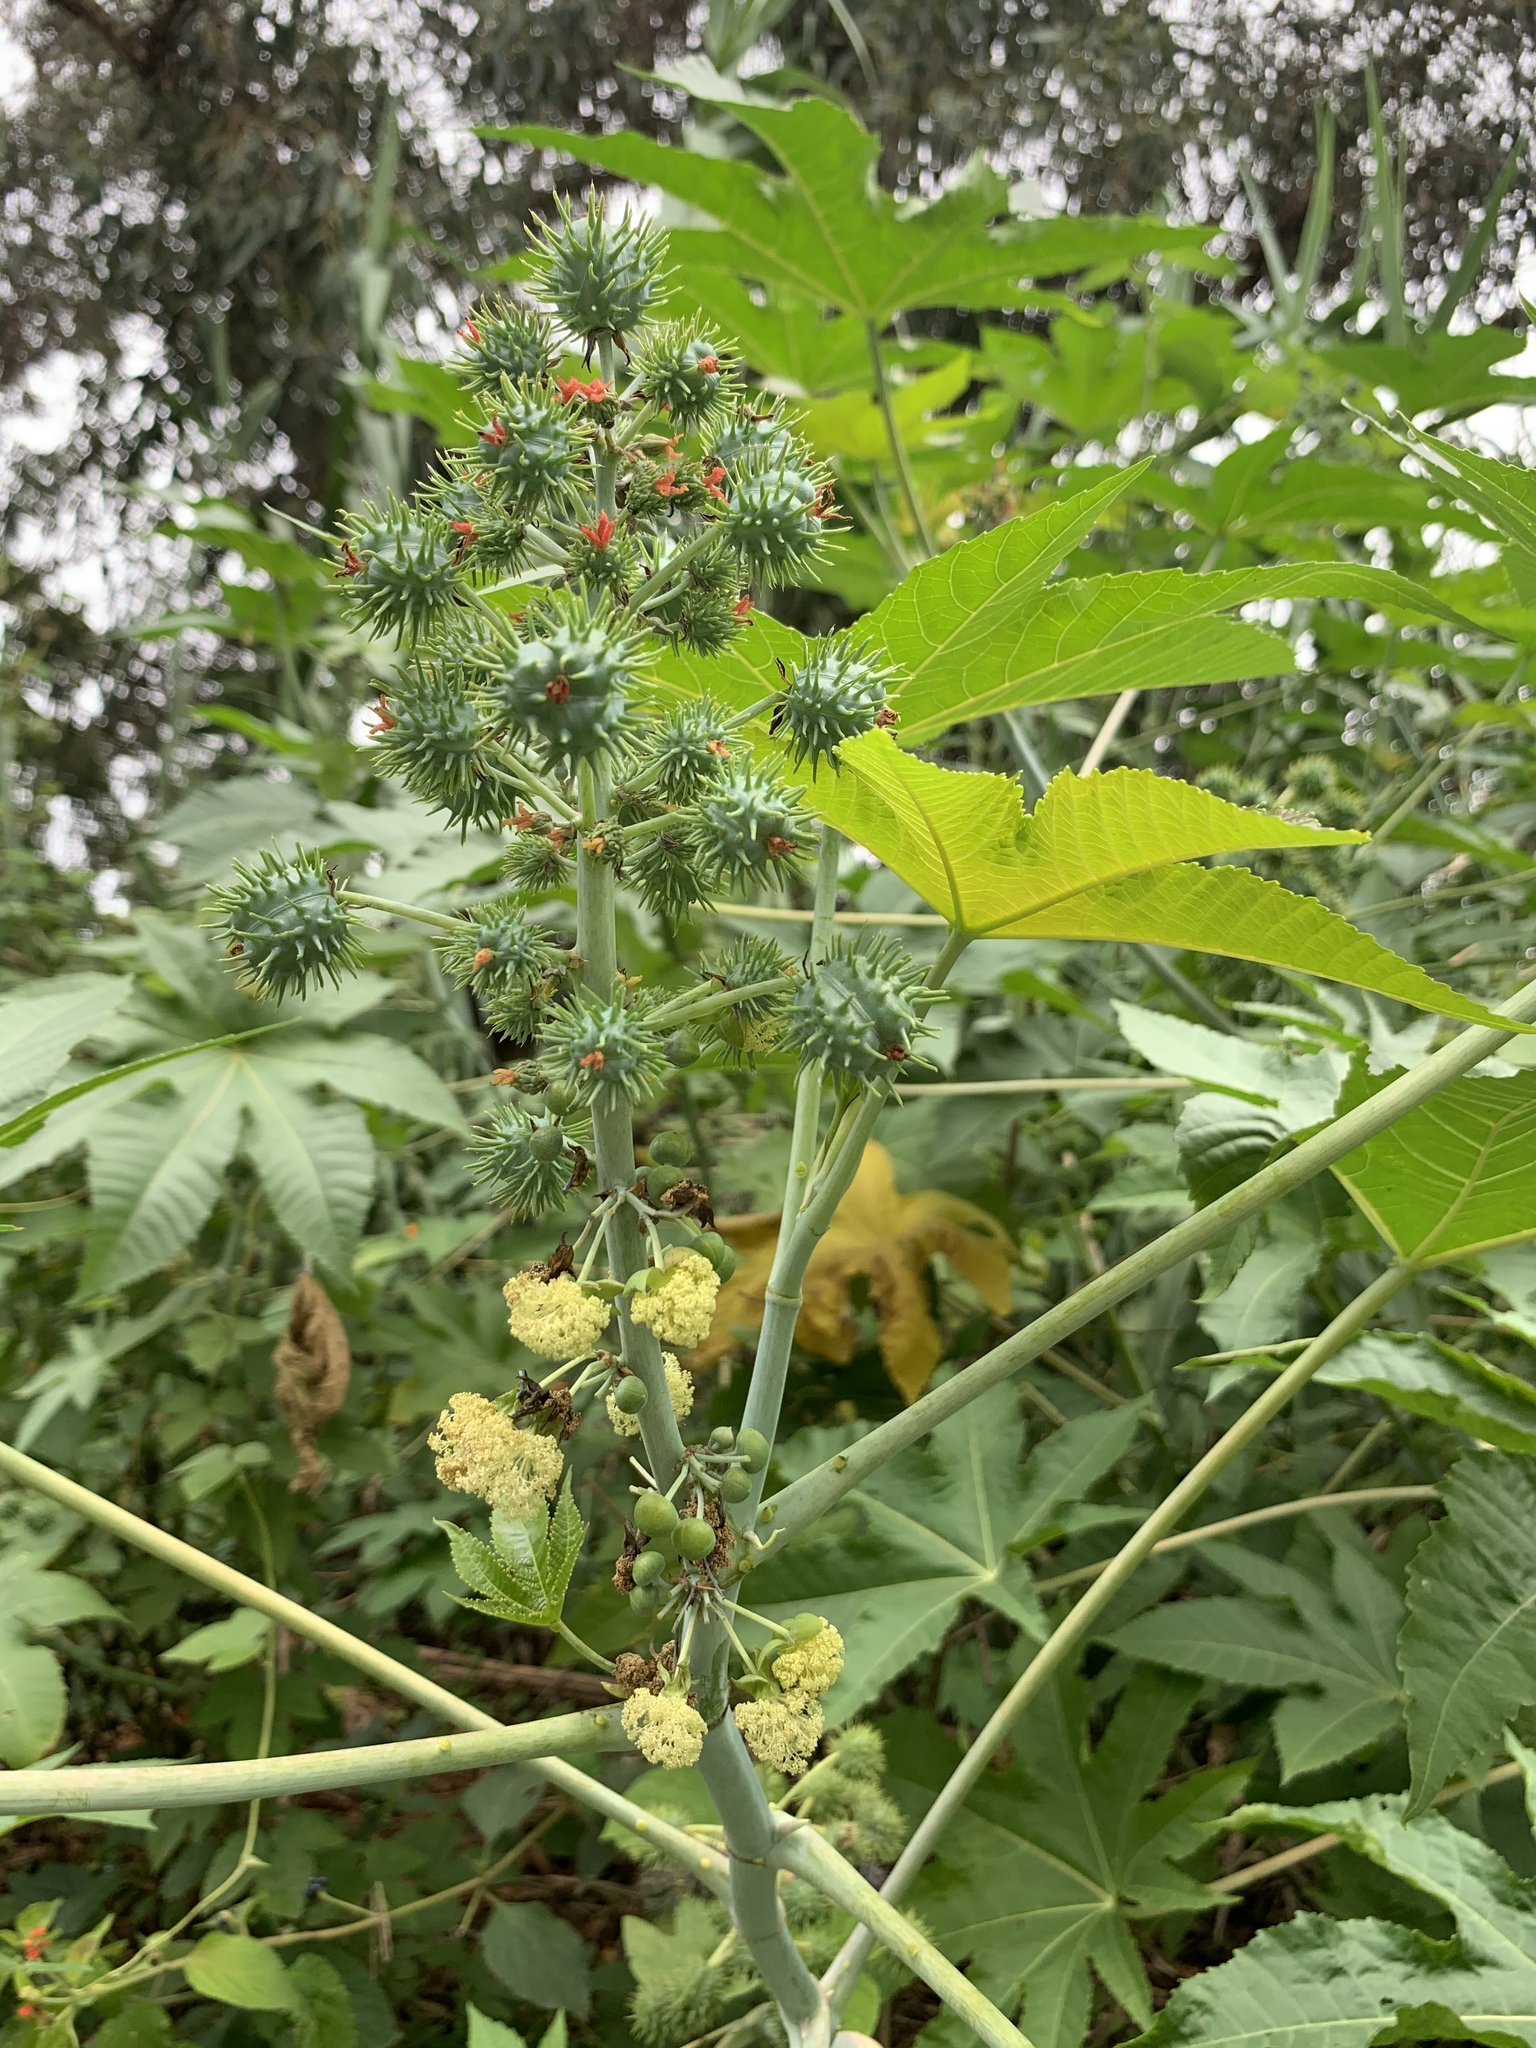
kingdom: Plantae
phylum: Tracheophyta
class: Magnoliopsida
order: Malpighiales
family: Euphorbiaceae
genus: Ricinus
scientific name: Ricinus communis
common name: Castor-oil-plant
